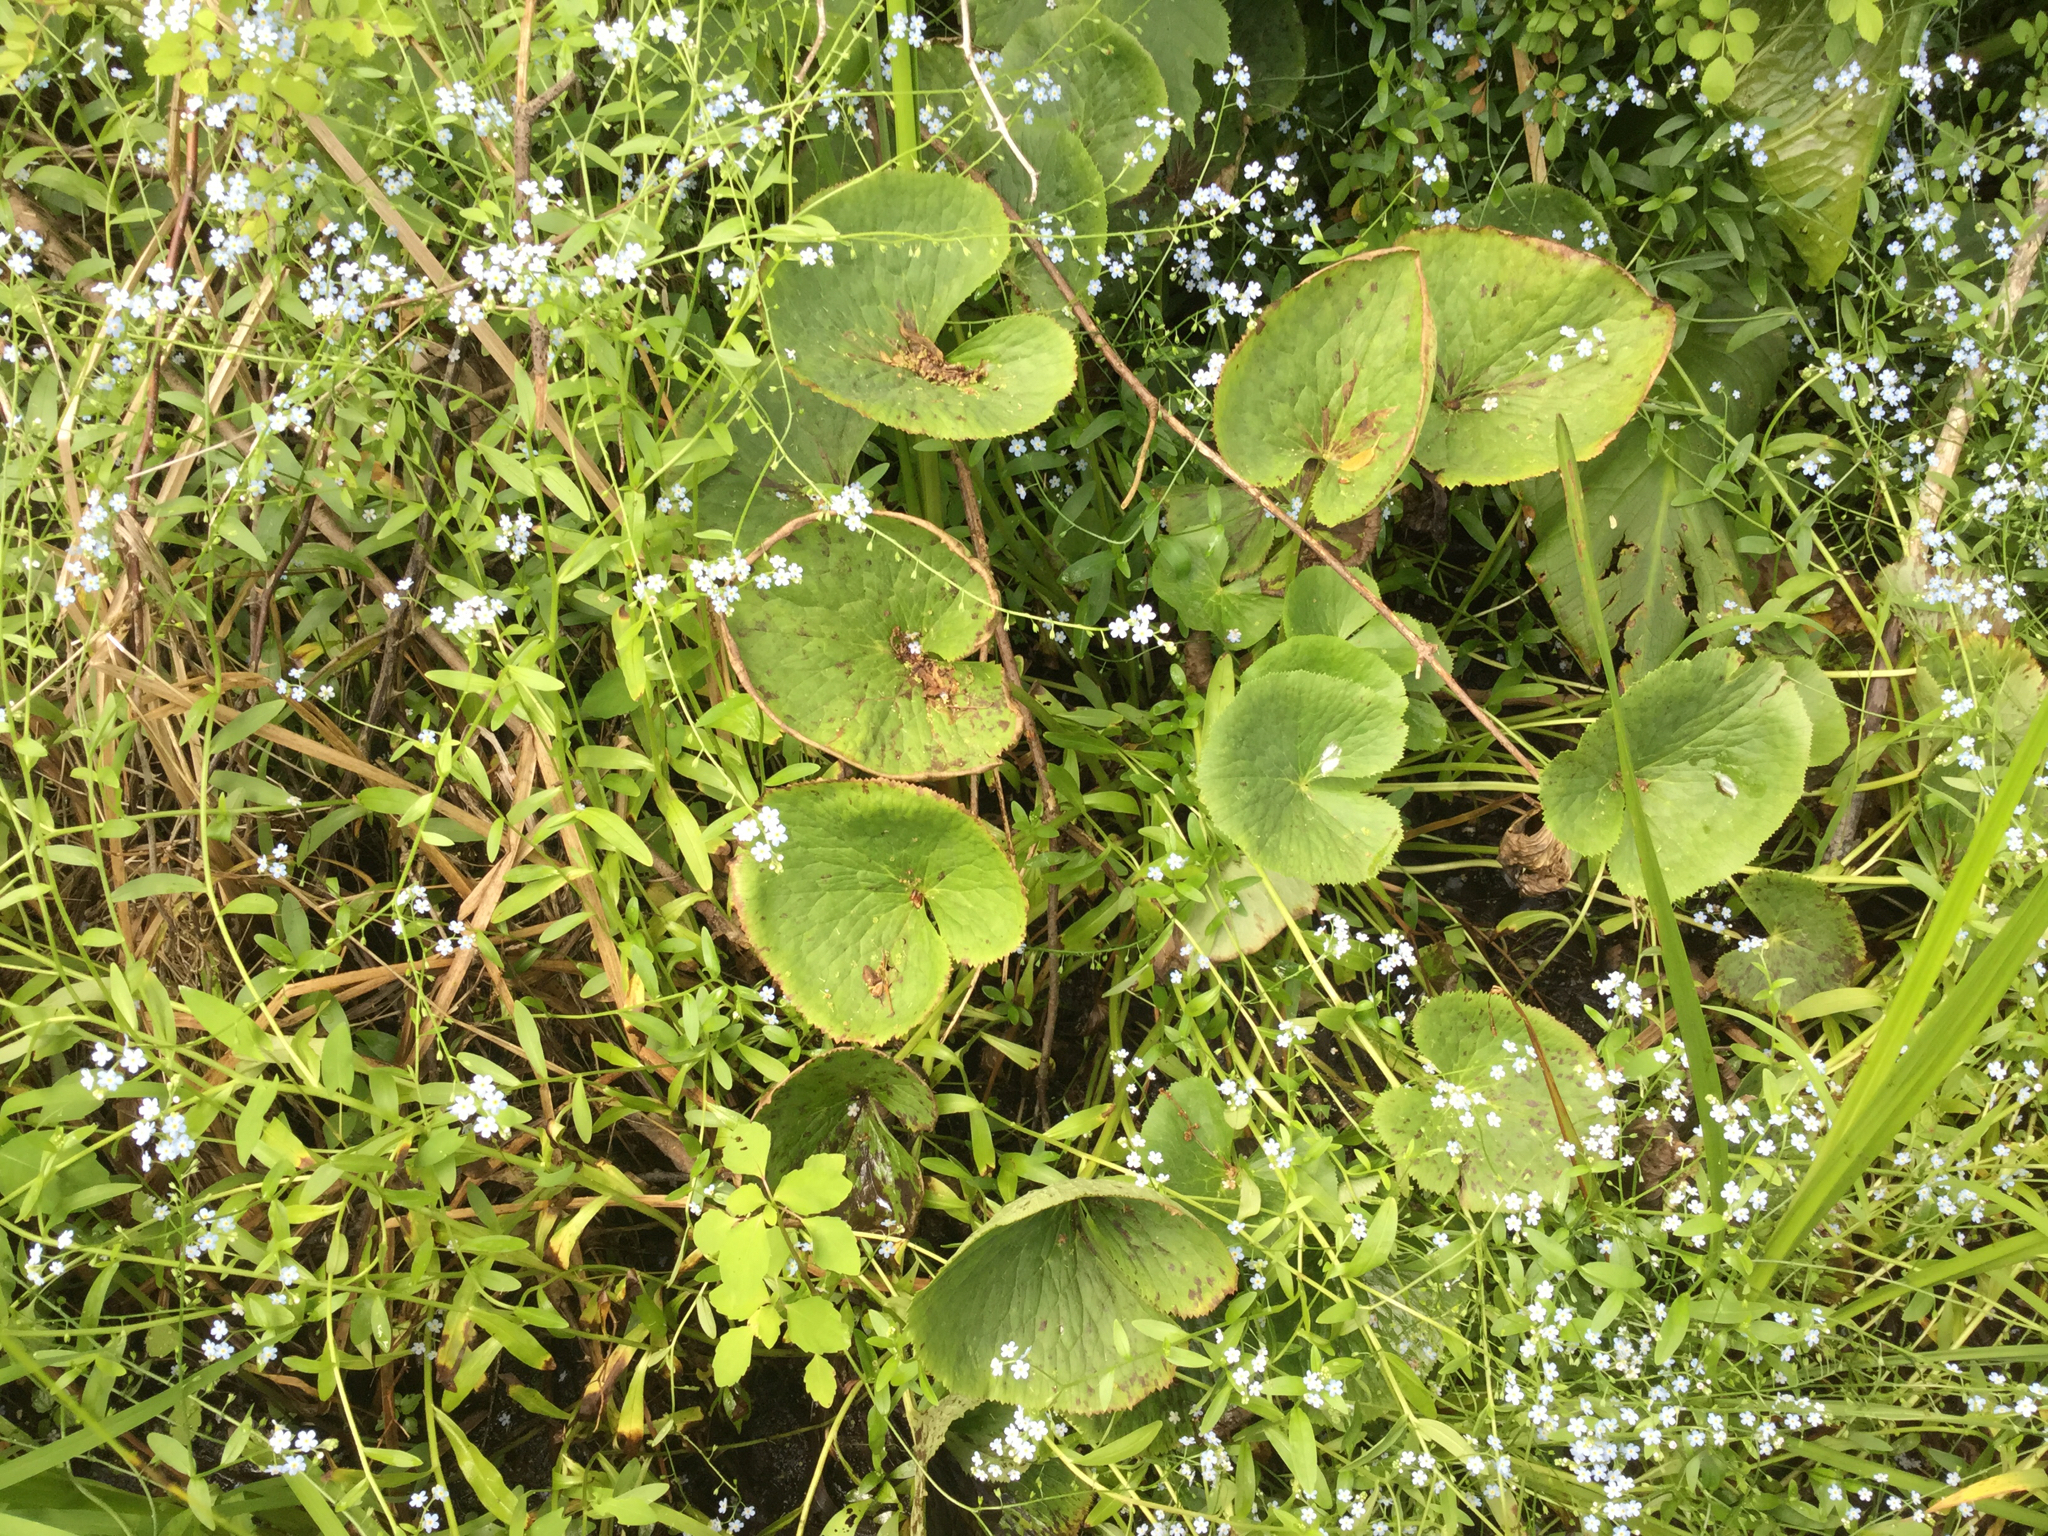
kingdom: Plantae
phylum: Tracheophyta
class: Magnoliopsida
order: Ranunculales
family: Ranunculaceae
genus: Caltha
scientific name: Caltha palustris
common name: Marsh marigold
